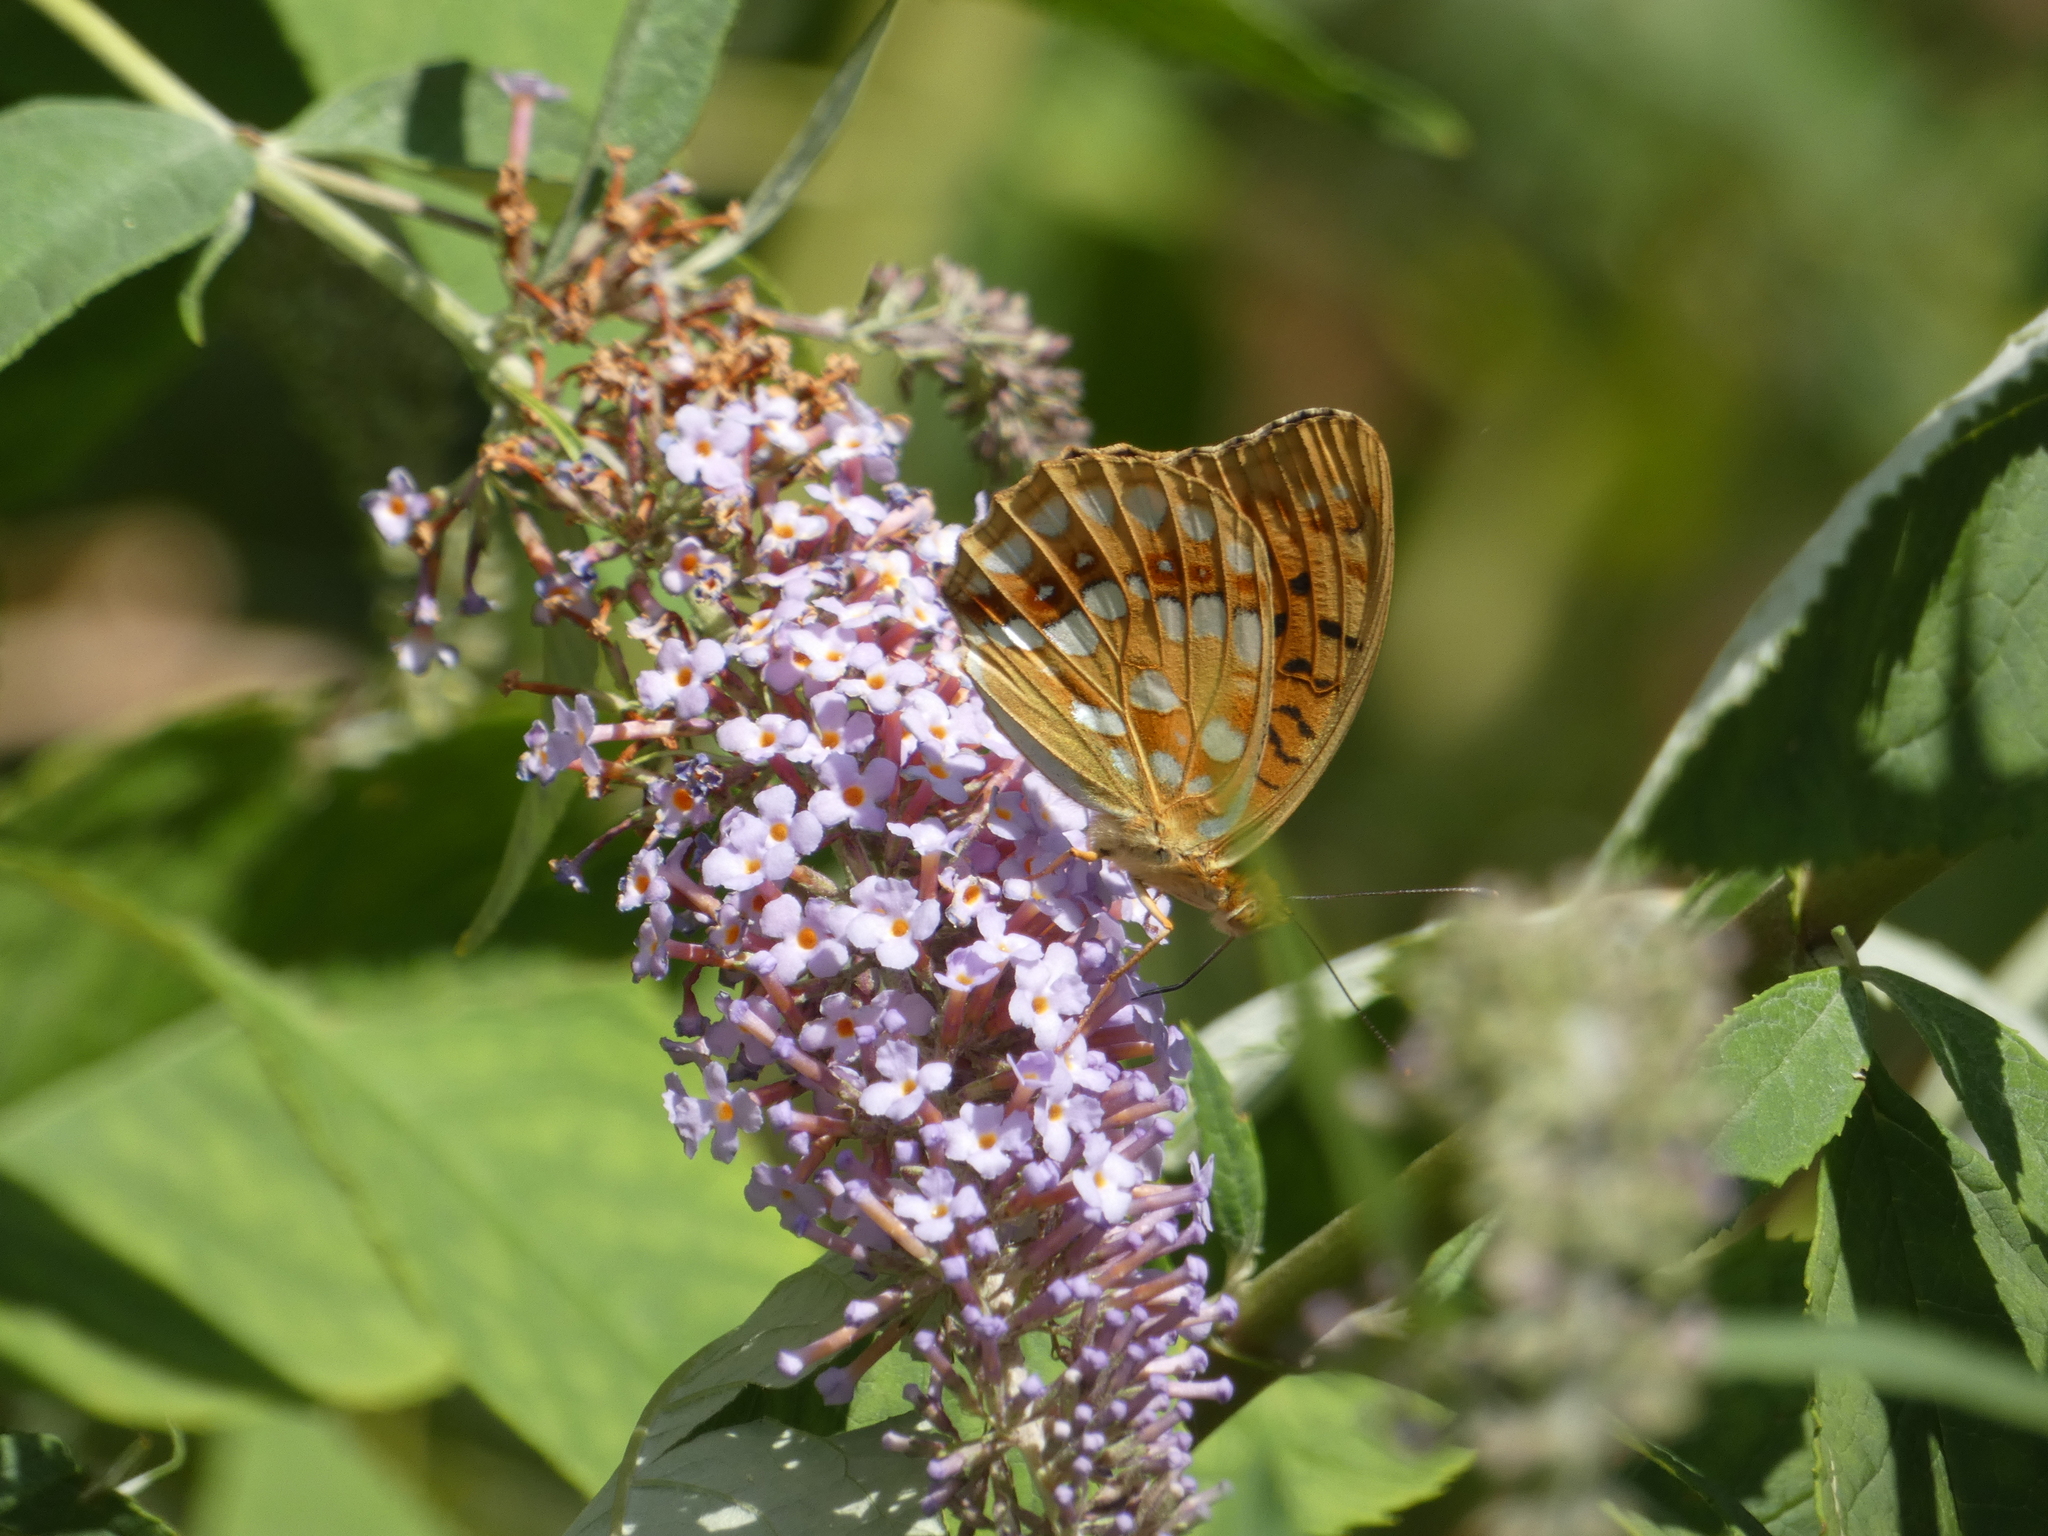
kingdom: Animalia
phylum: Arthropoda
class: Insecta
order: Lepidoptera
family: Nymphalidae
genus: Fabriciana
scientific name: Fabriciana adippe
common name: High brown fritillary
